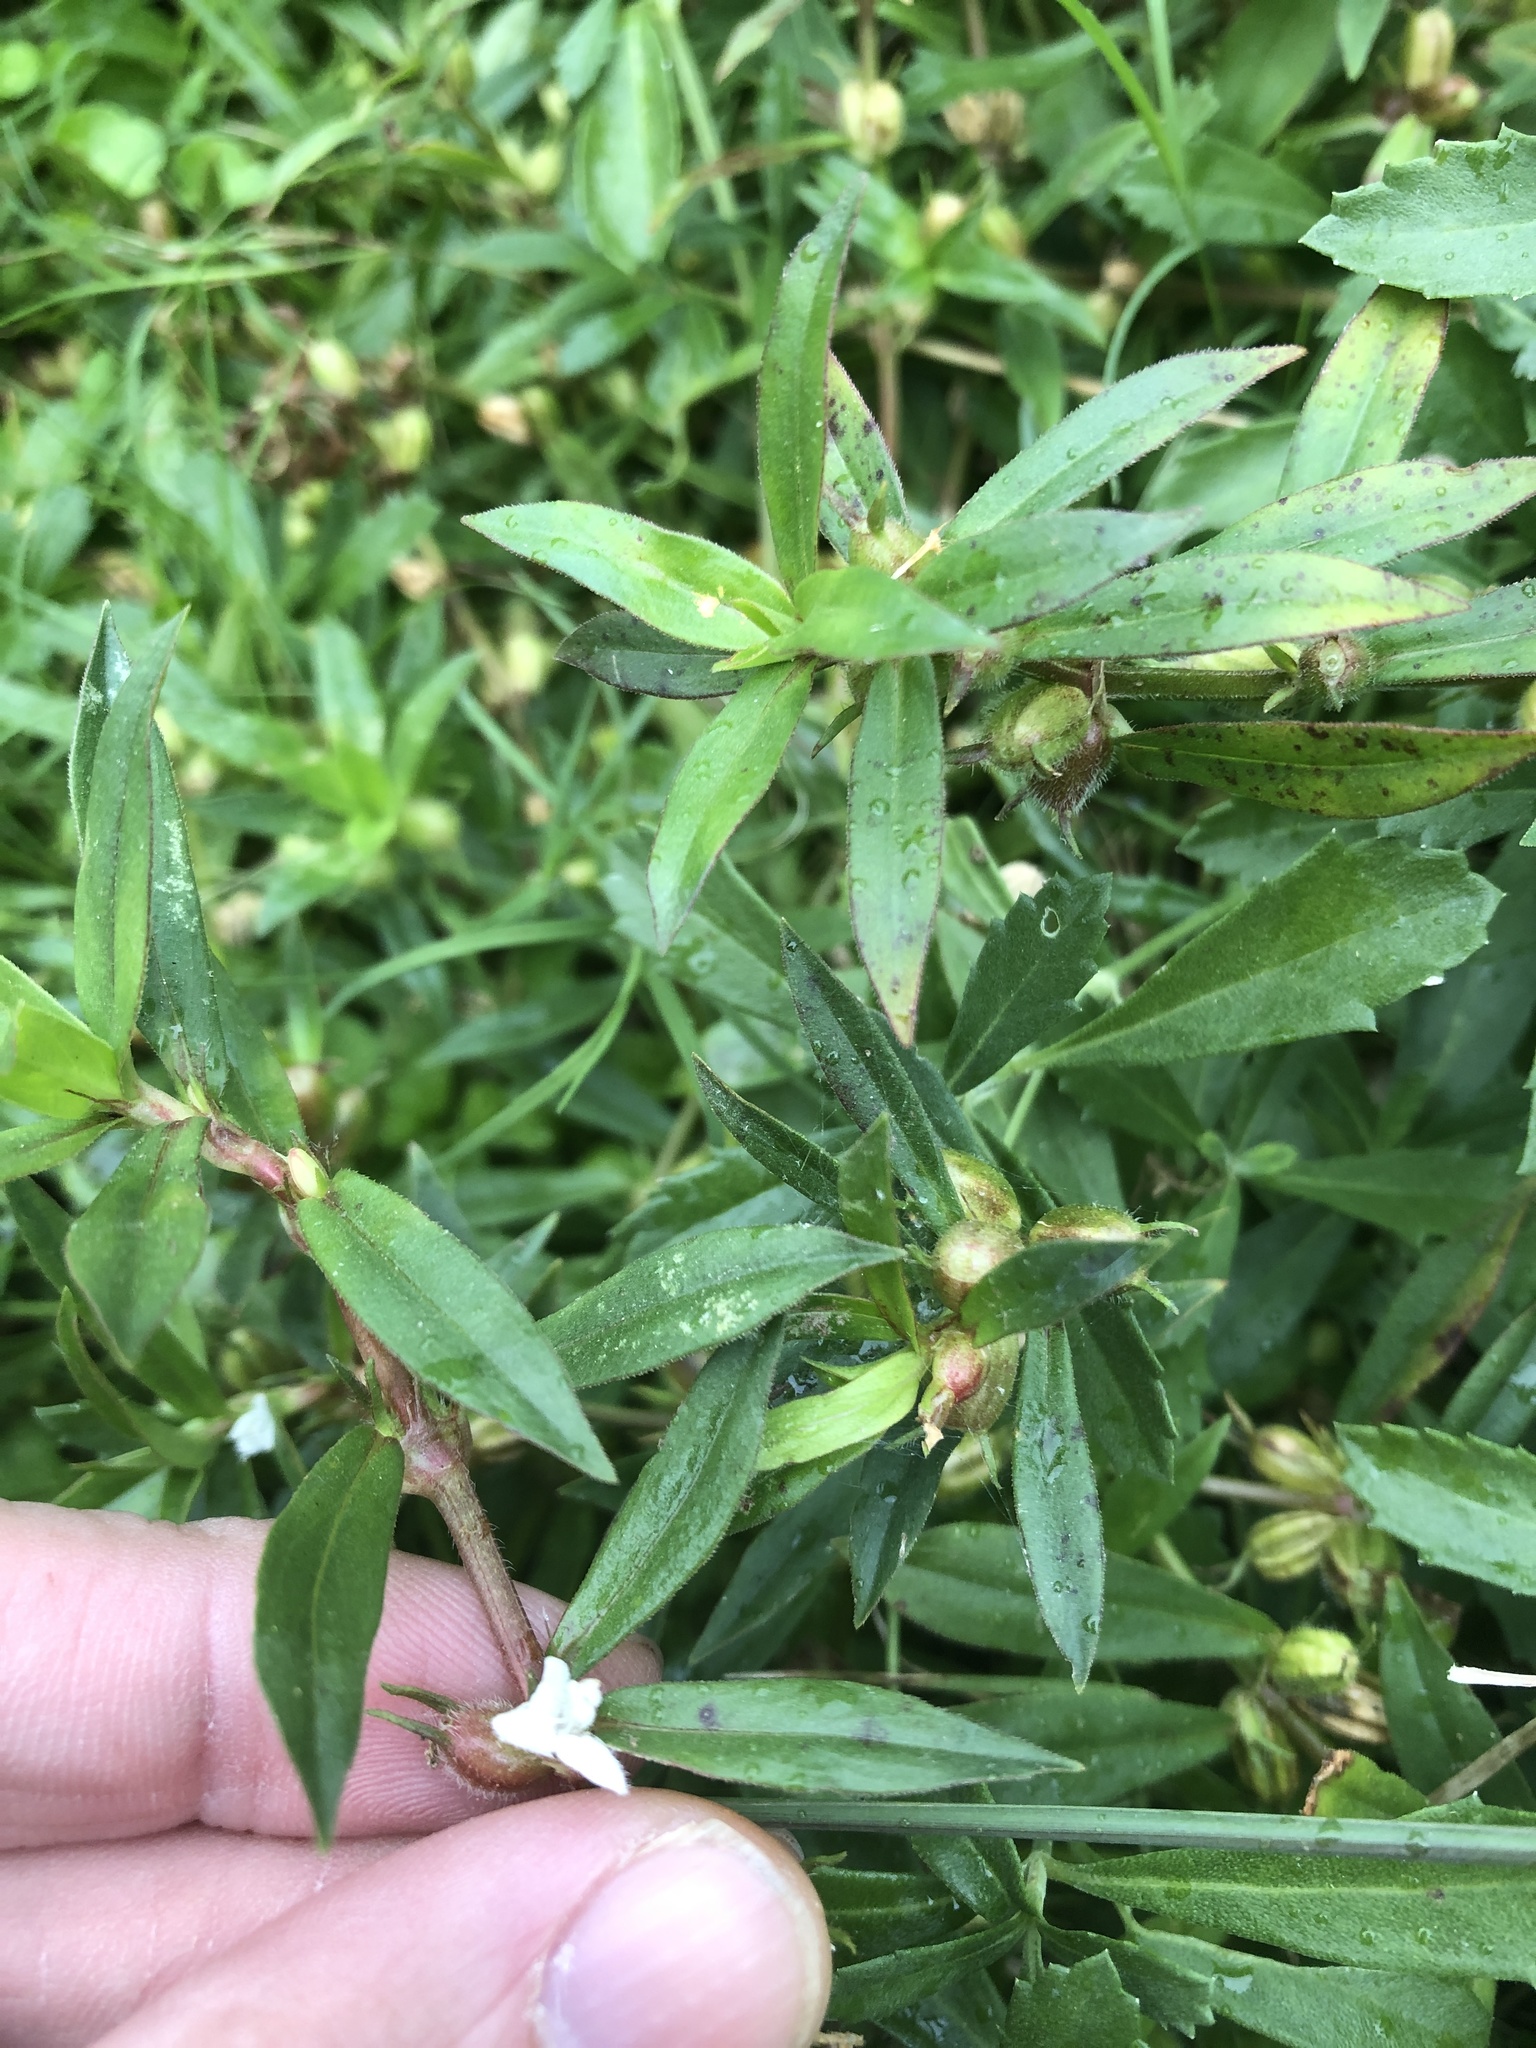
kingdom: Plantae
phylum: Tracheophyta
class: Magnoliopsida
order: Gentianales
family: Rubiaceae
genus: Diodia
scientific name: Diodia virginiana
